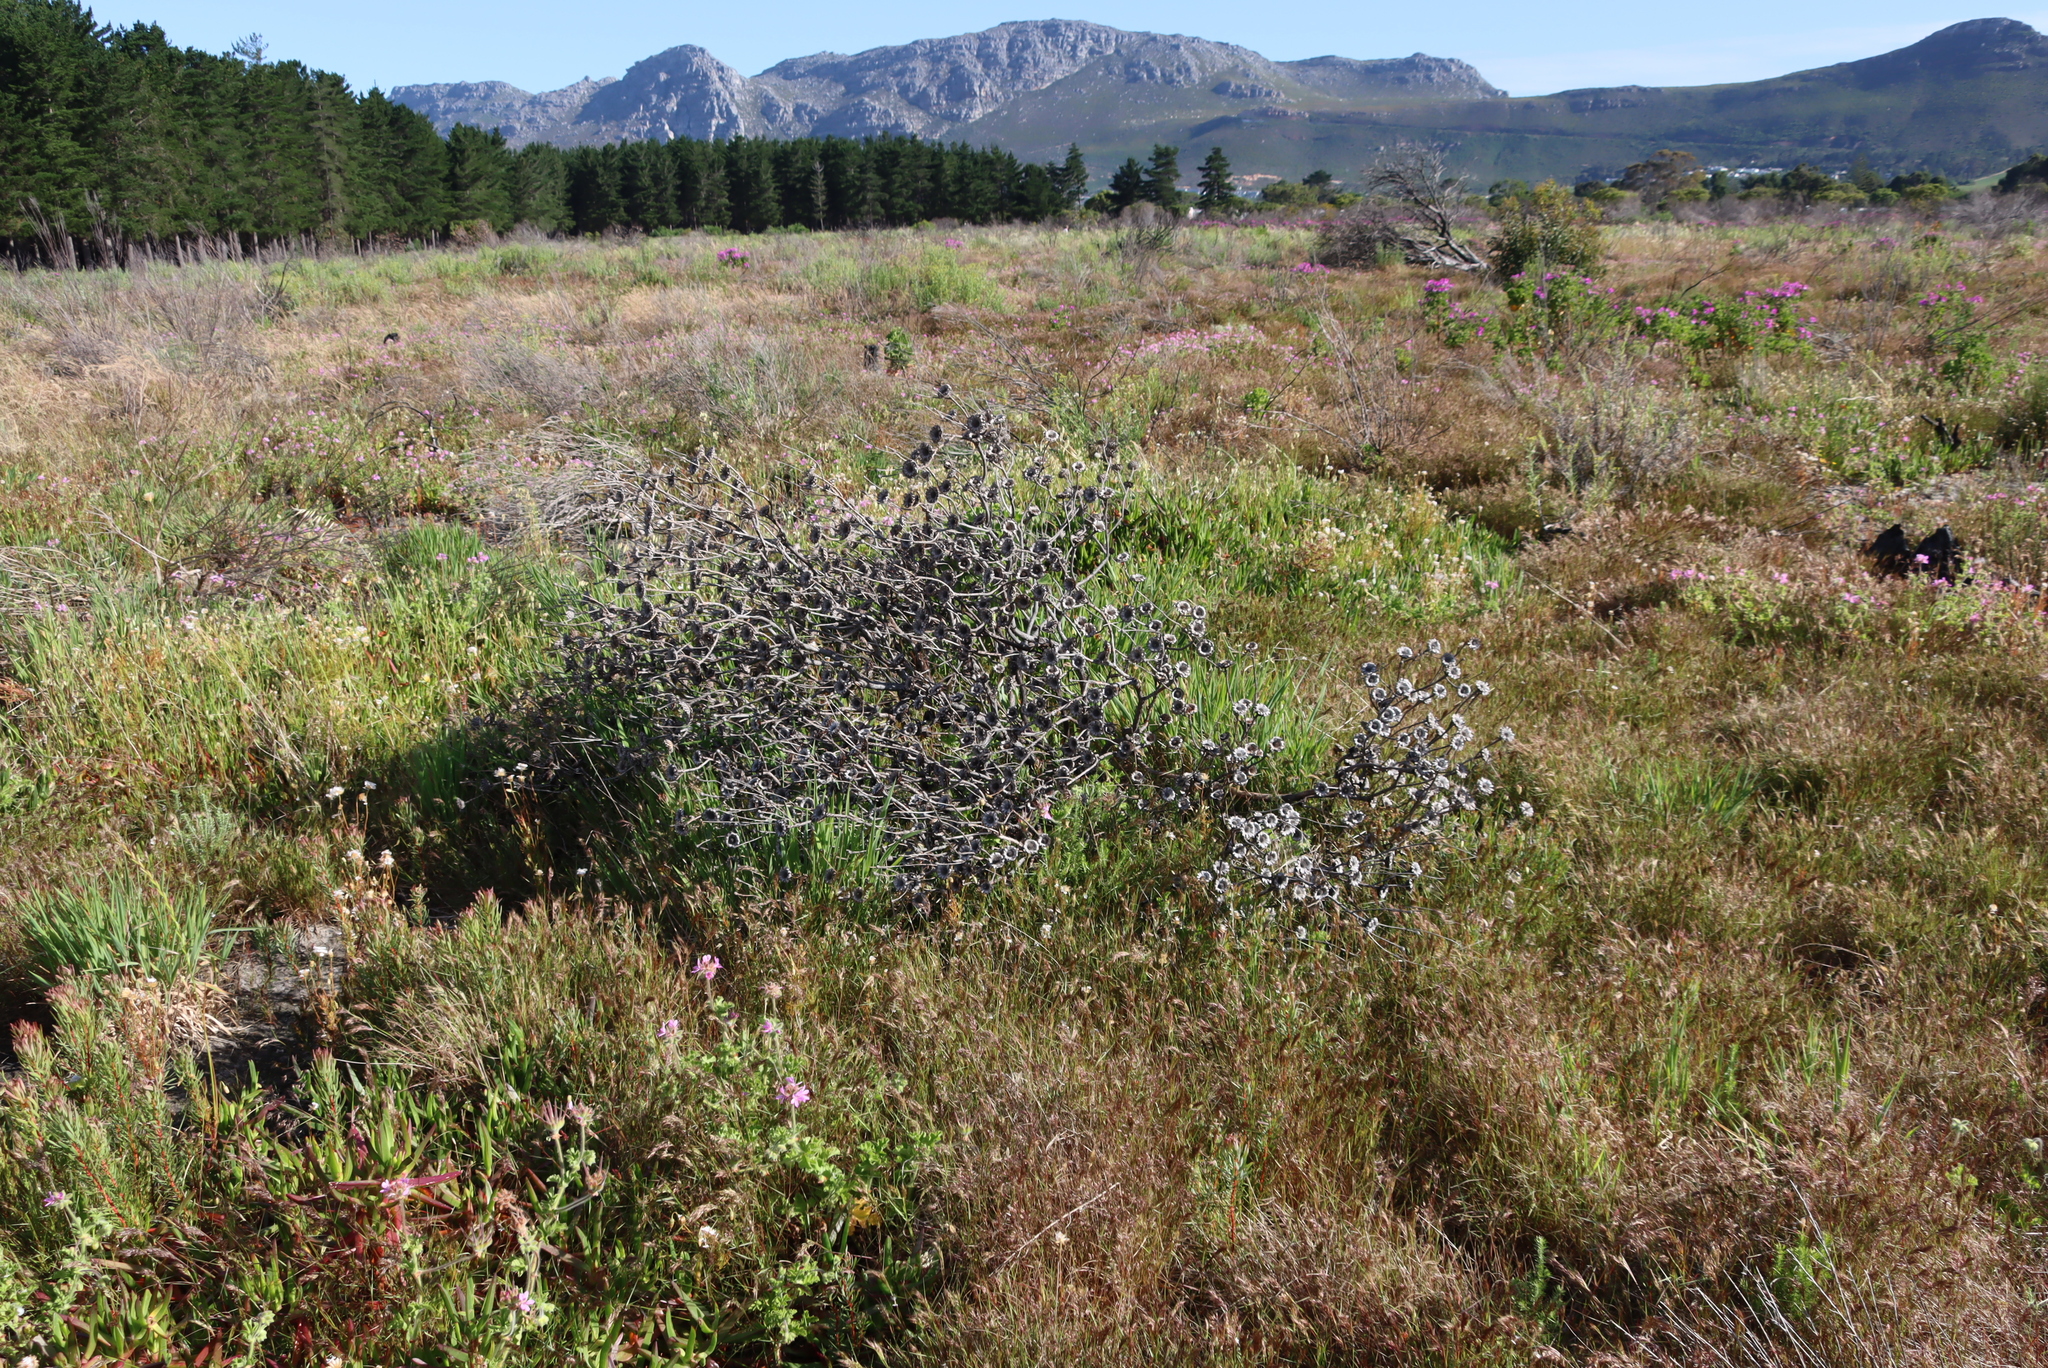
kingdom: Plantae
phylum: Tracheophyta
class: Magnoliopsida
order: Proteales
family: Proteaceae
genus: Protea
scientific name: Protea scolymocephala
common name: Thistle sugarbush
